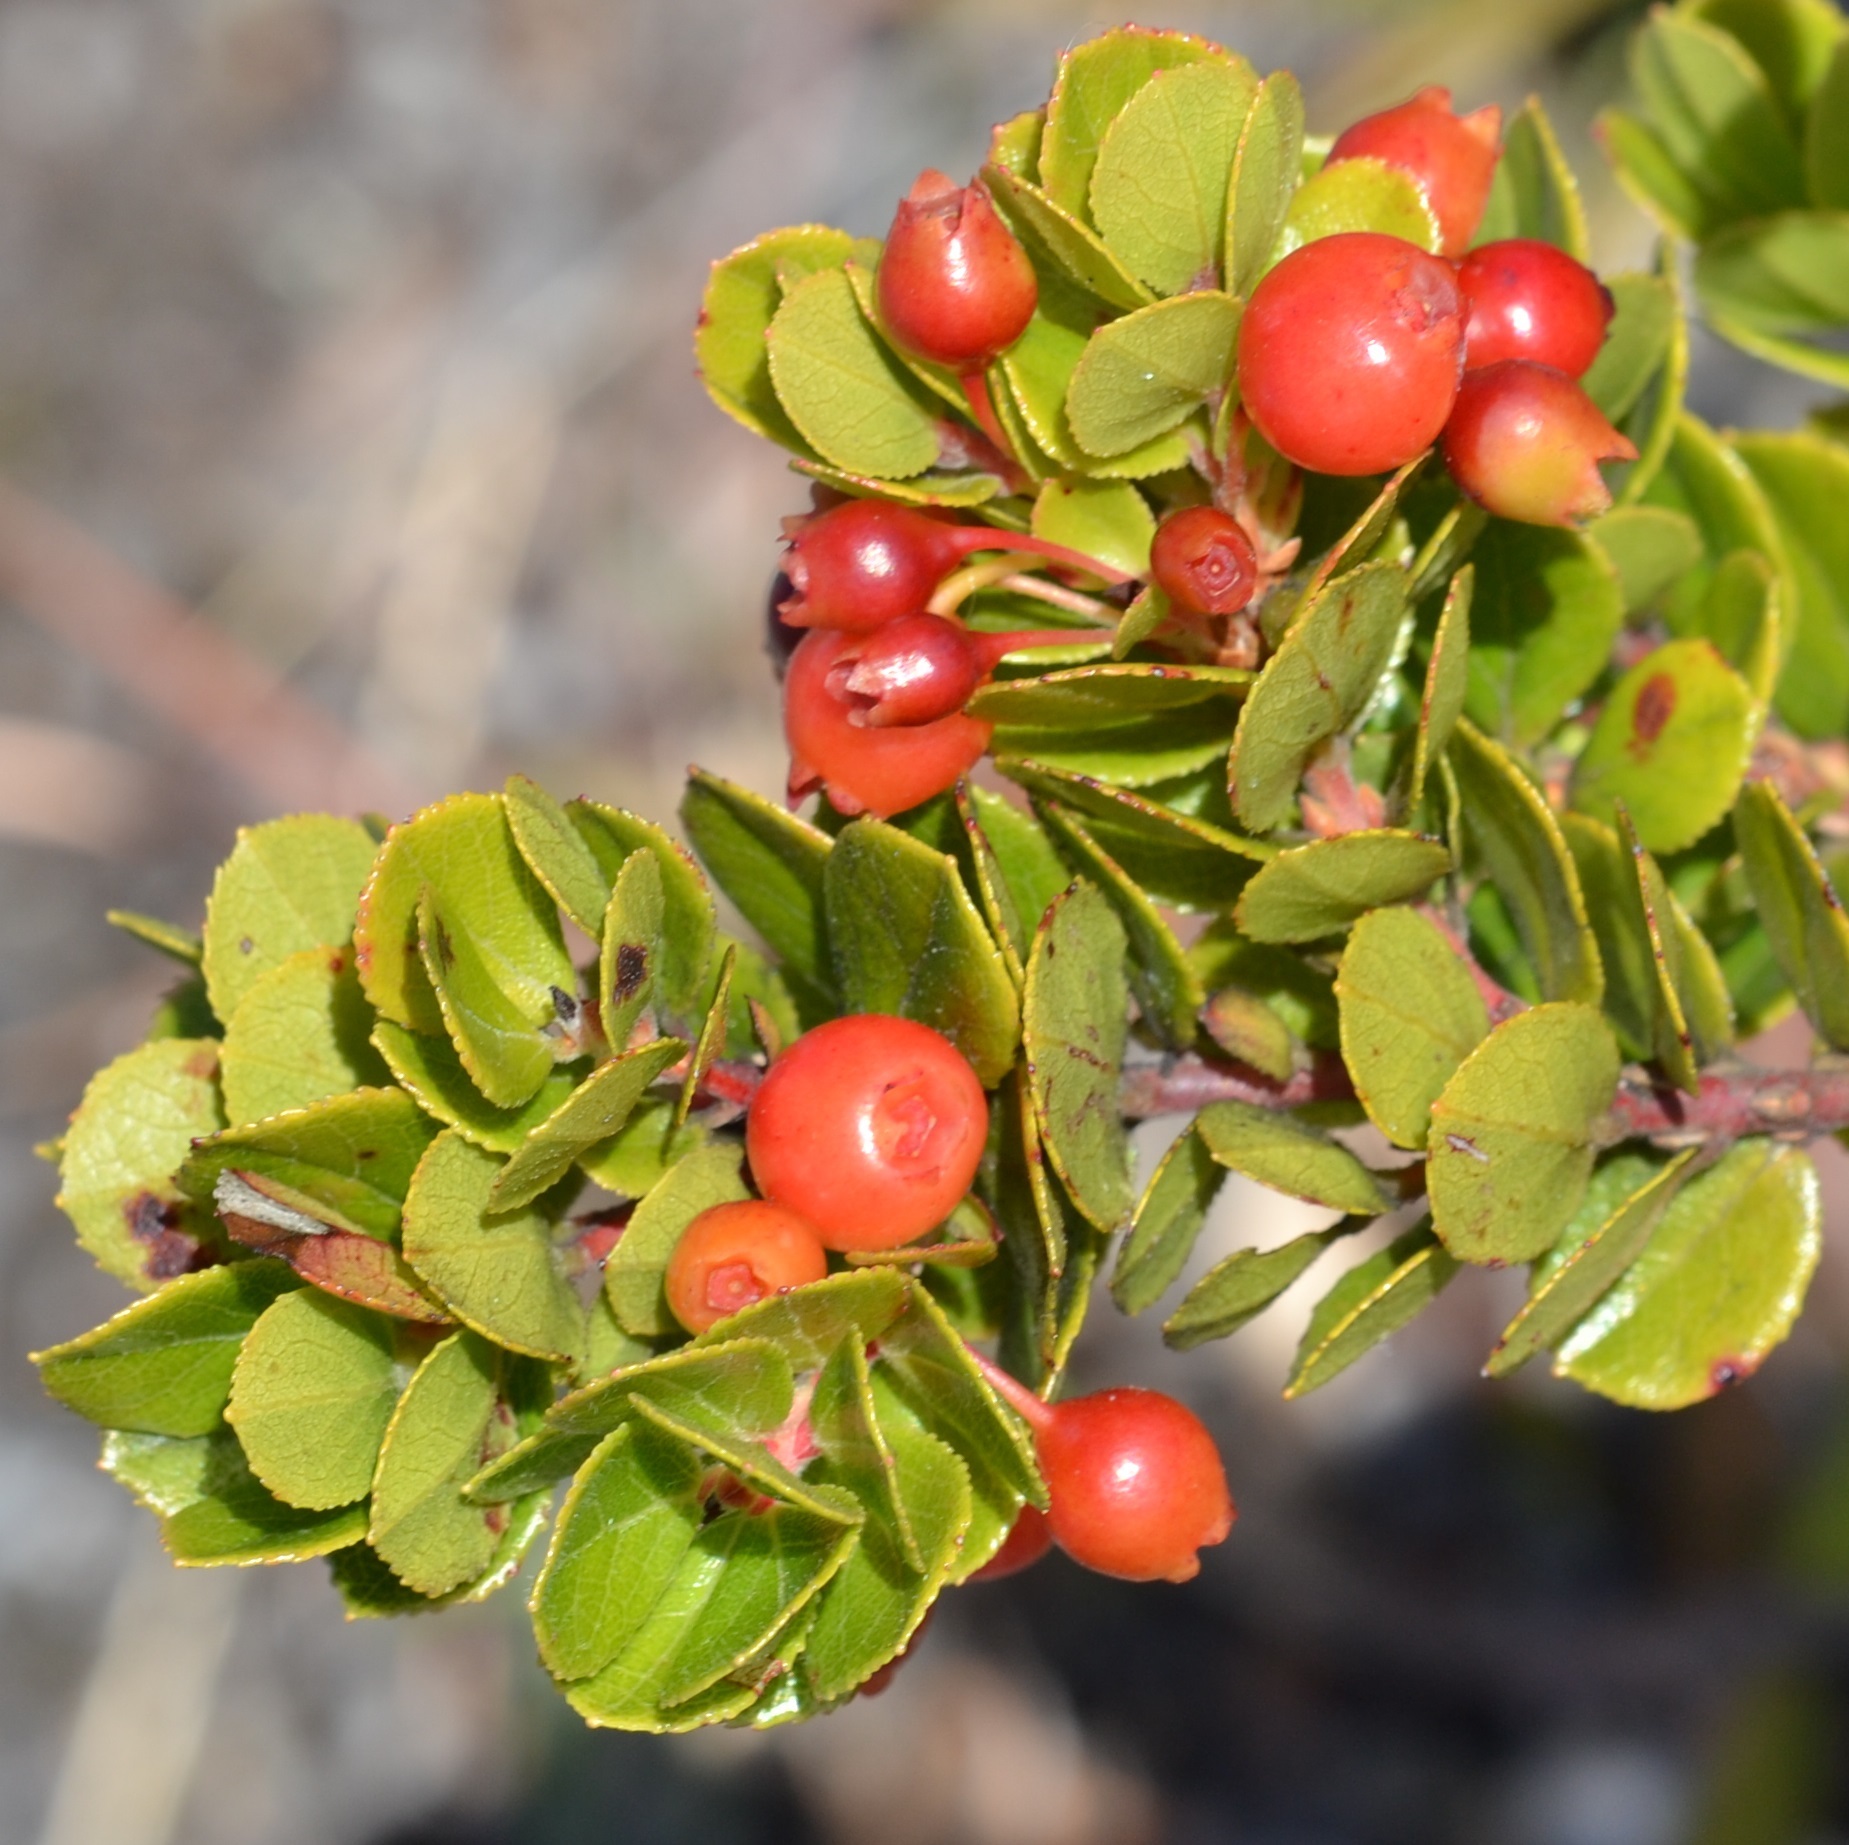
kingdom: Plantae
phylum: Tracheophyta
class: Magnoliopsida
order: Ericales
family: Ericaceae
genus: Vaccinium
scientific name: Vaccinium reticulatum
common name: Ohelo
